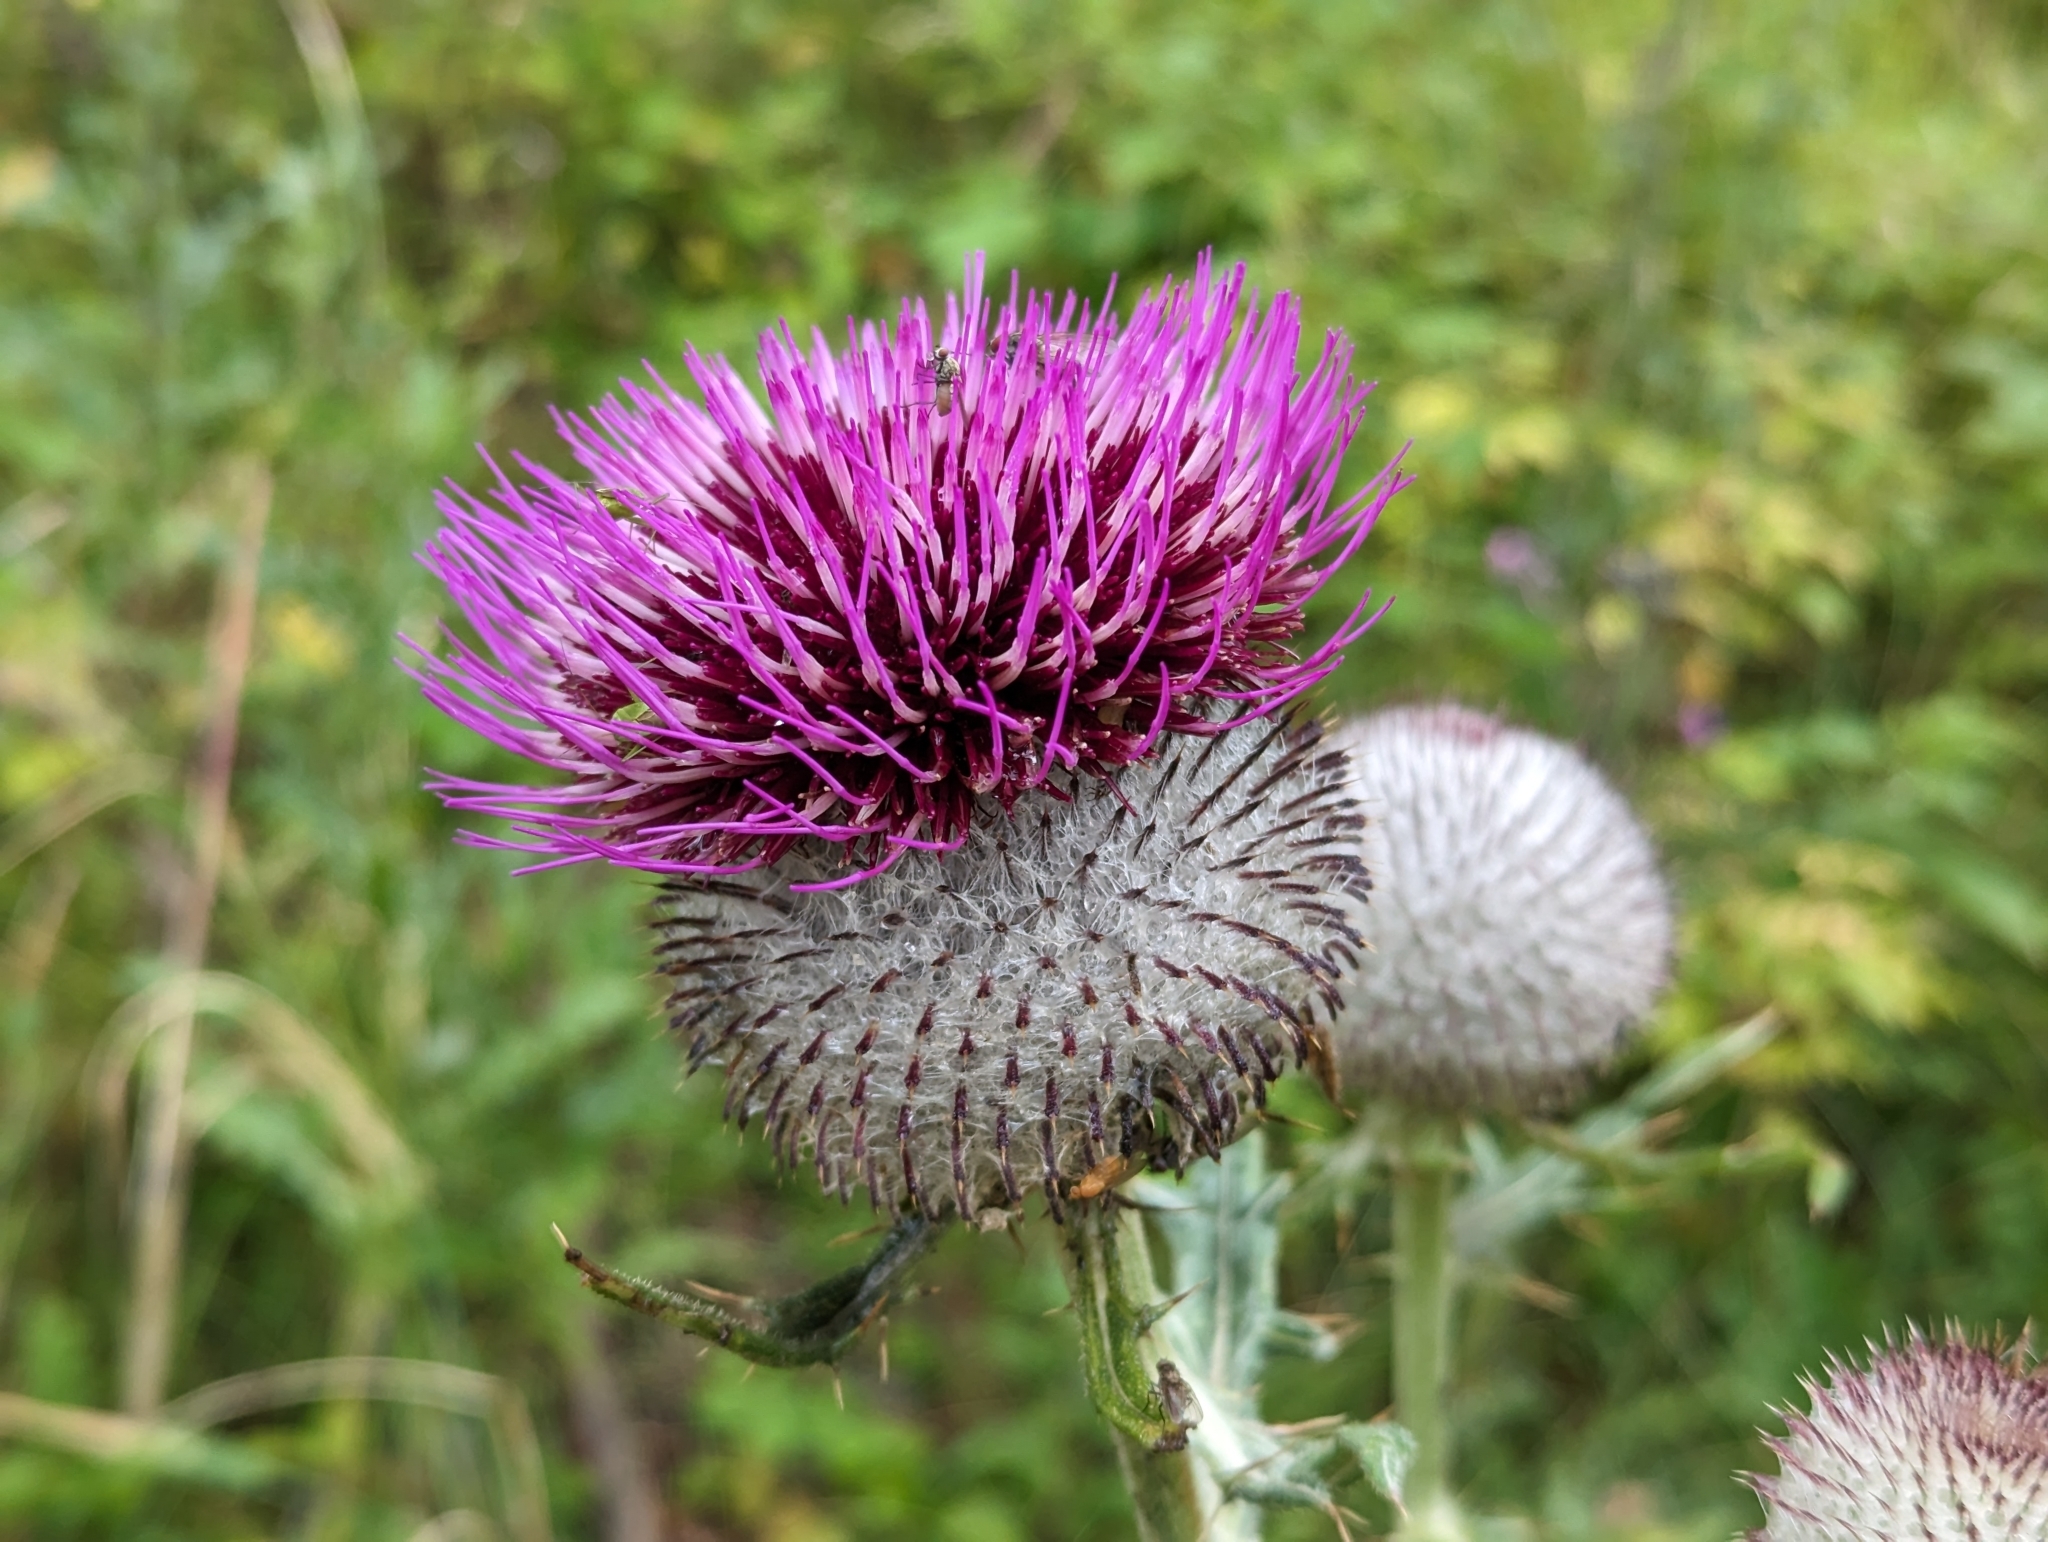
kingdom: Plantae
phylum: Tracheophyta
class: Magnoliopsida
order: Asterales
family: Asteraceae
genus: Lophiolepis
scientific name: Lophiolepis eriophora
